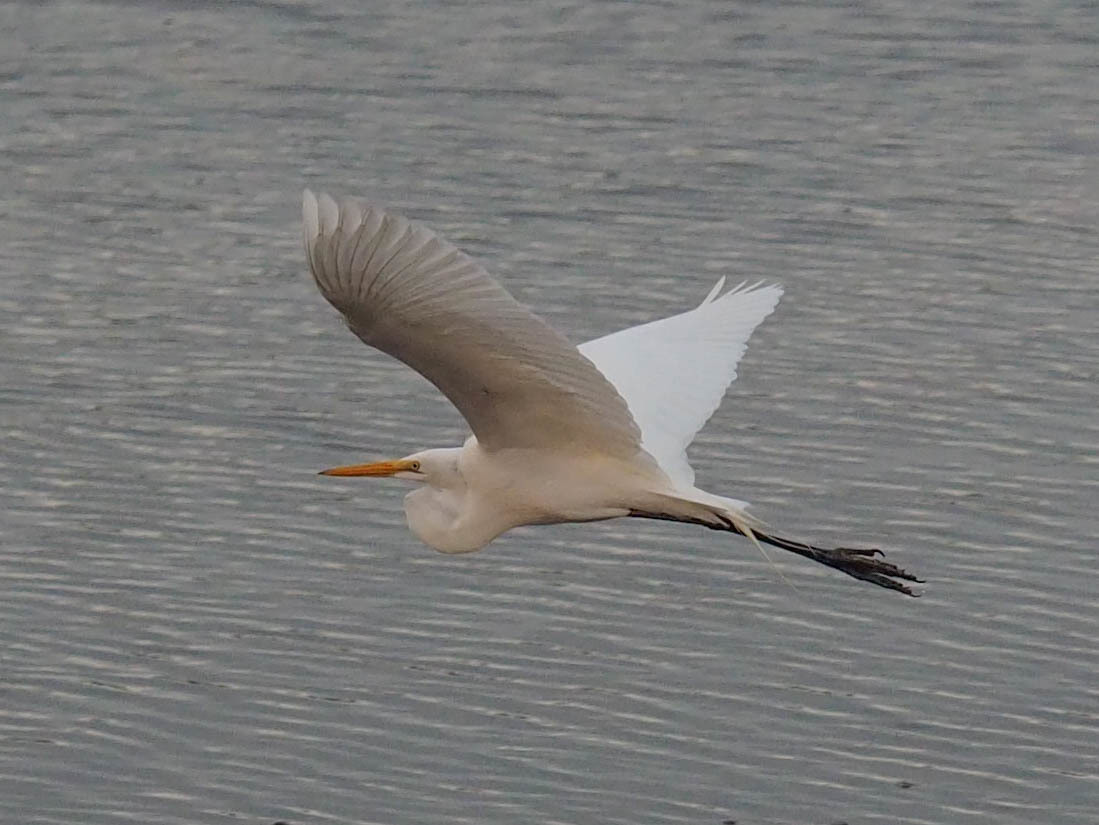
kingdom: Animalia
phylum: Chordata
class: Aves
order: Pelecaniformes
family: Ardeidae
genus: Ardea
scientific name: Ardea alba
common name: Great egret
